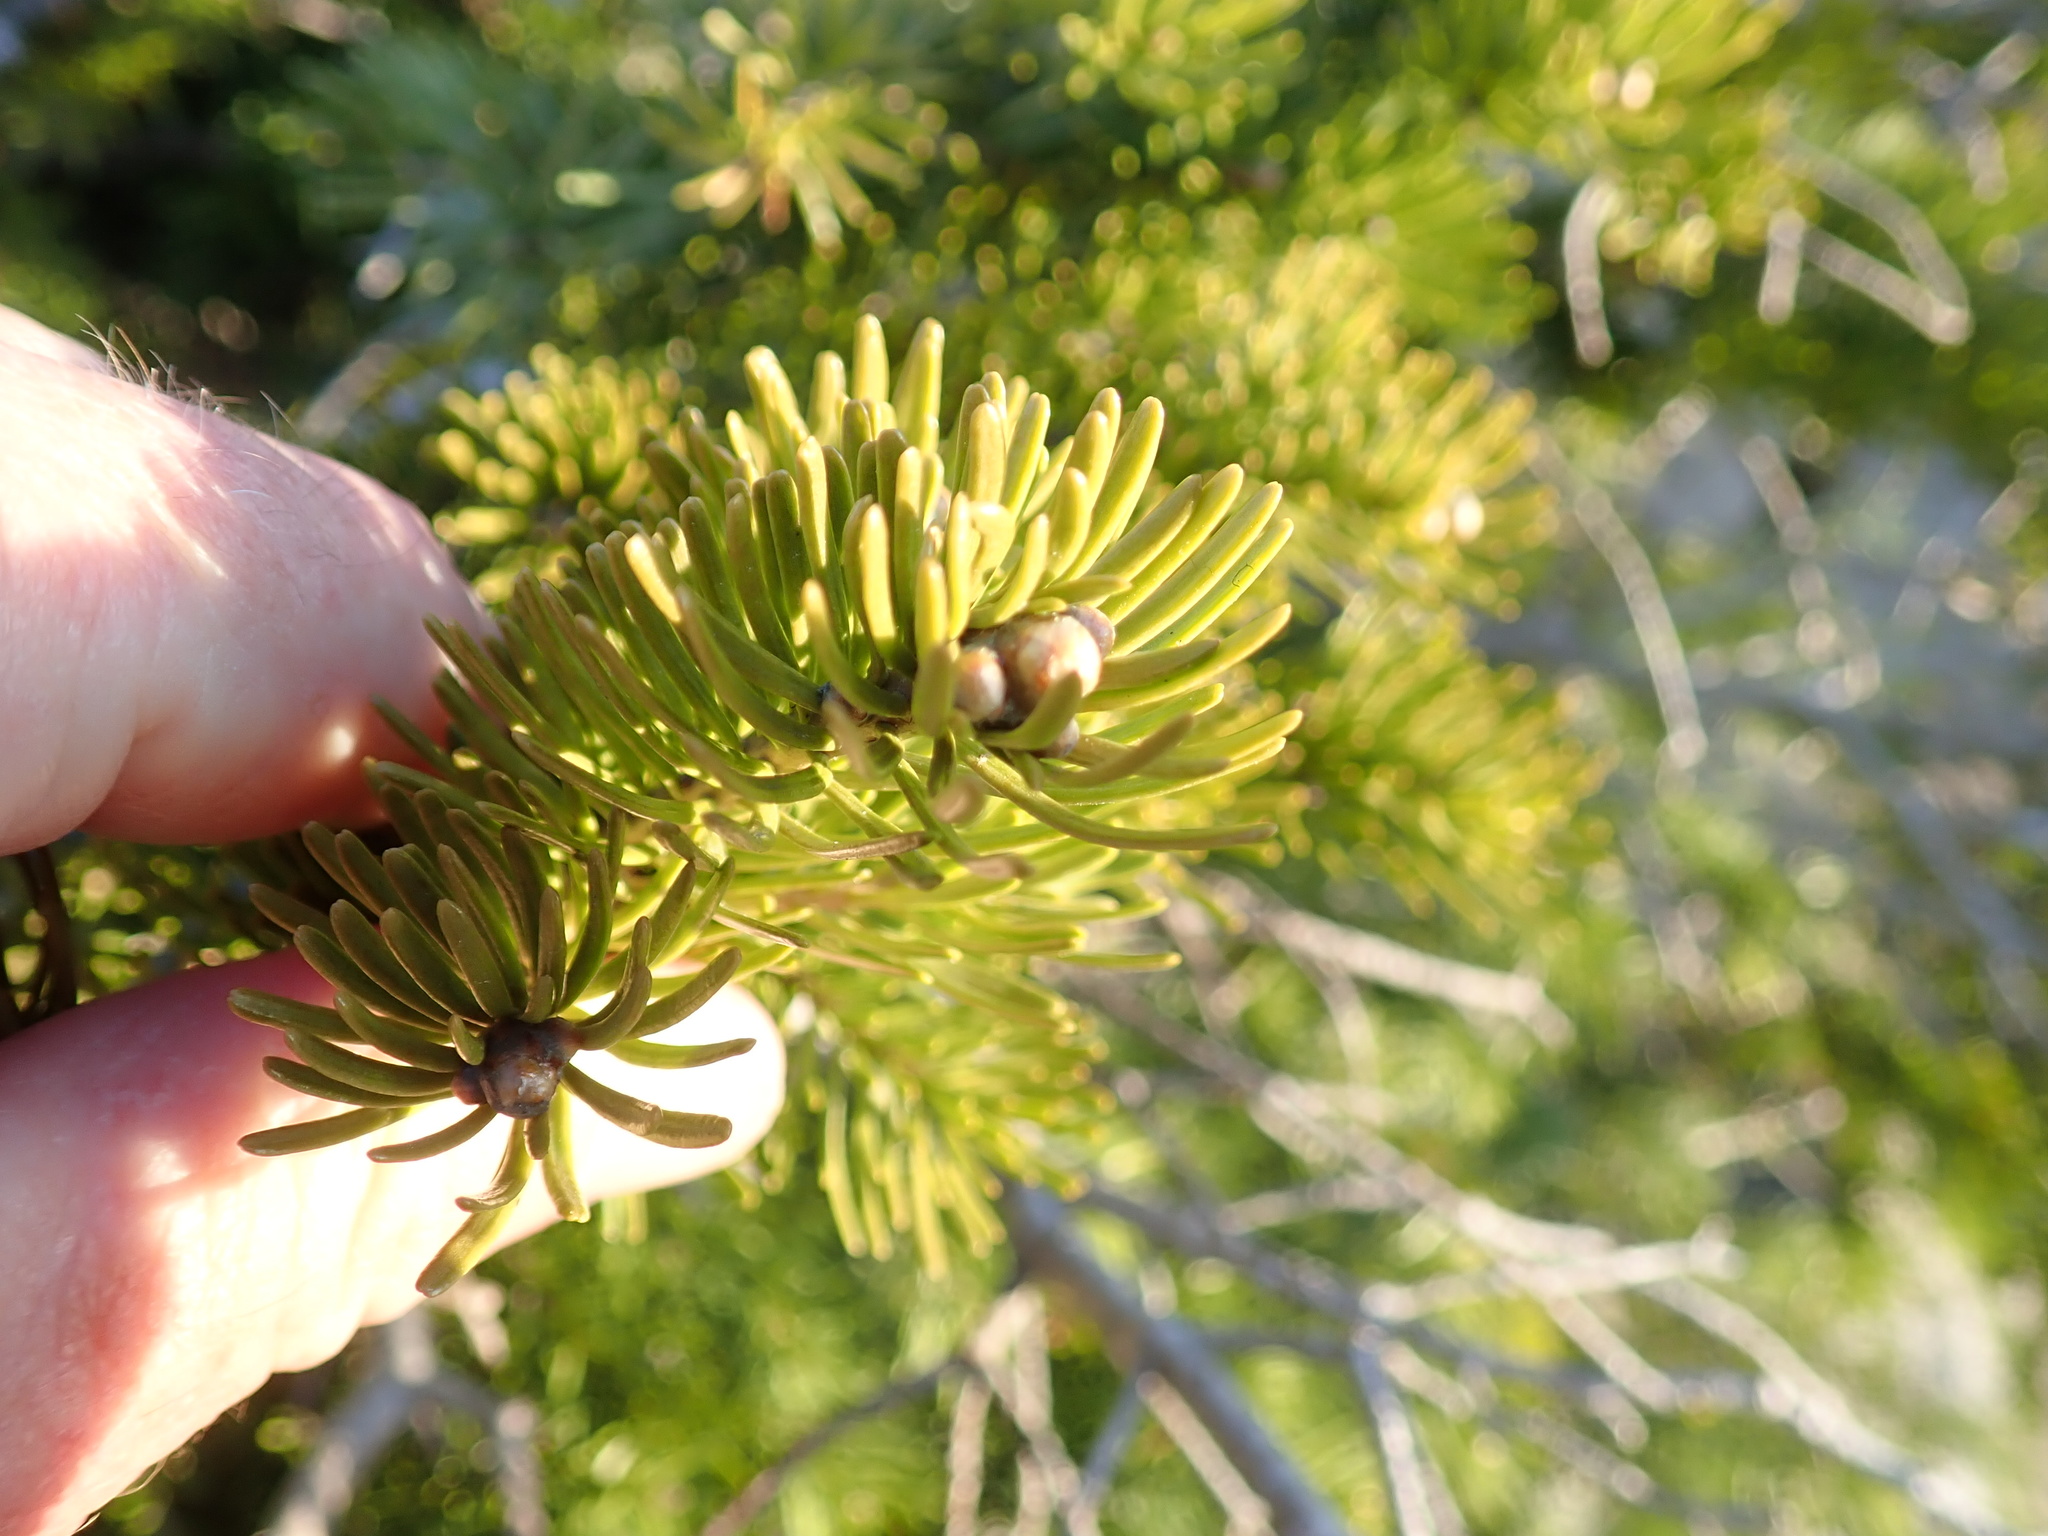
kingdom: Plantae
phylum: Tracheophyta
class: Pinopsida
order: Pinales
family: Pinaceae
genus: Abies
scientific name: Abies lasiocarpa
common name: Subalpine fir
